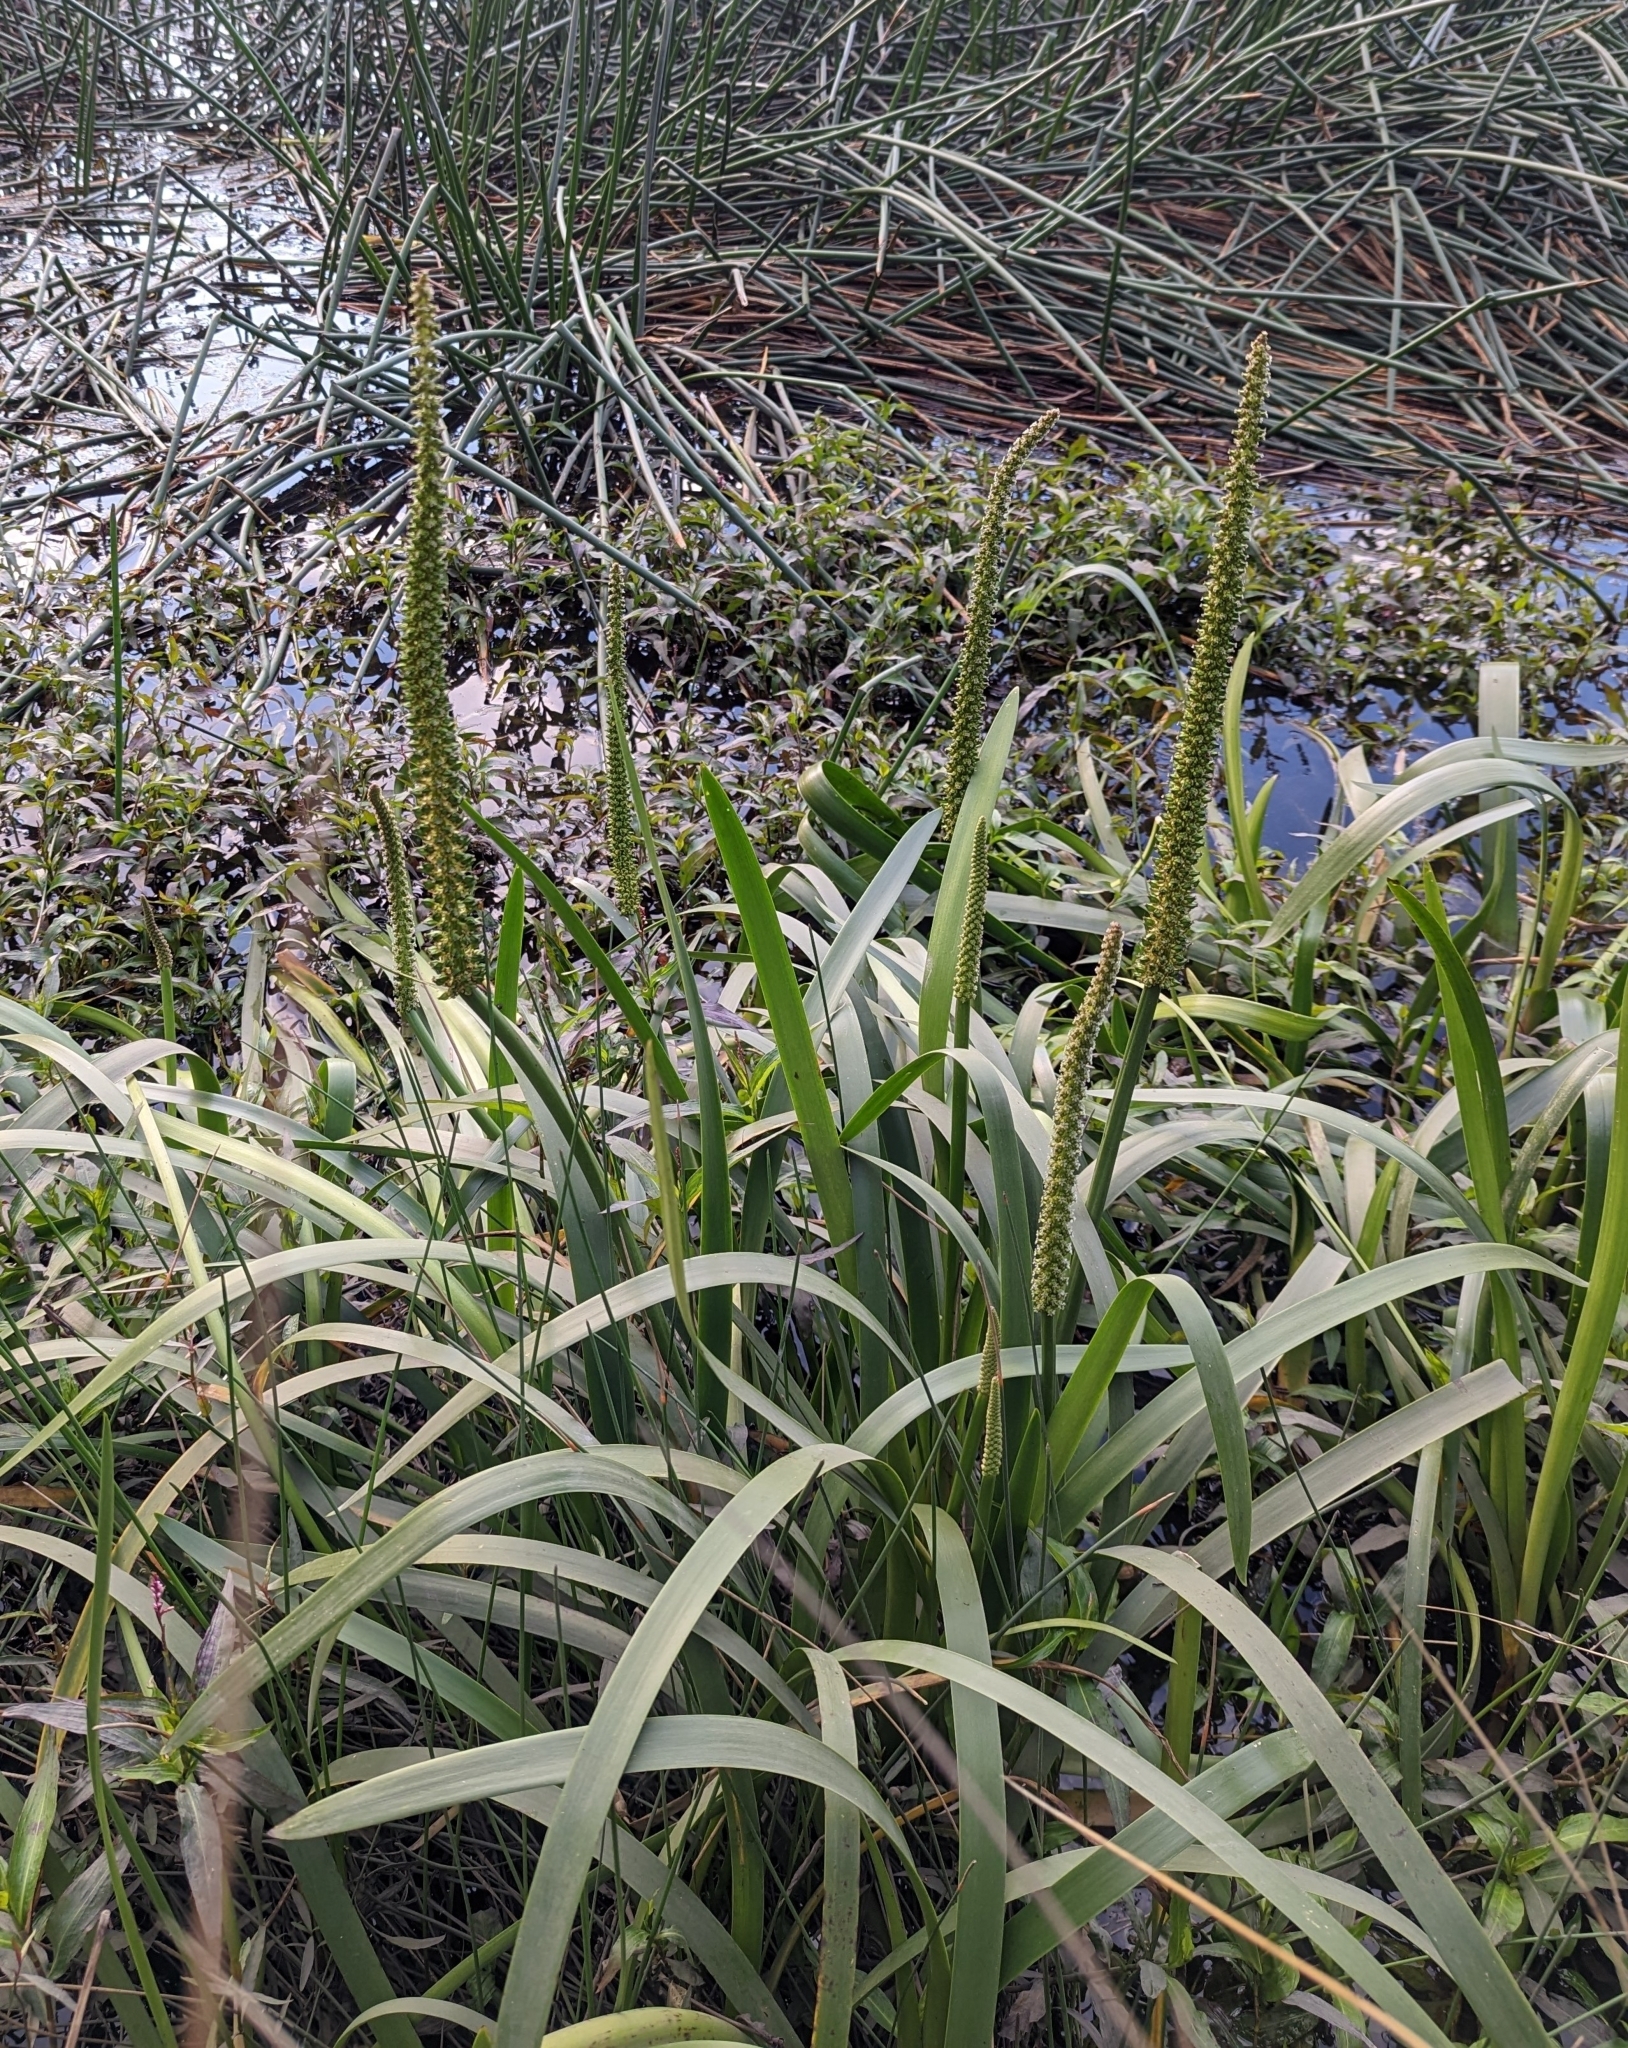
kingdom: Plantae
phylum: Tracheophyta
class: Liliopsida
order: Alismatales
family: Juncaginaceae
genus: Cycnogeton
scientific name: Cycnogeton procerum
